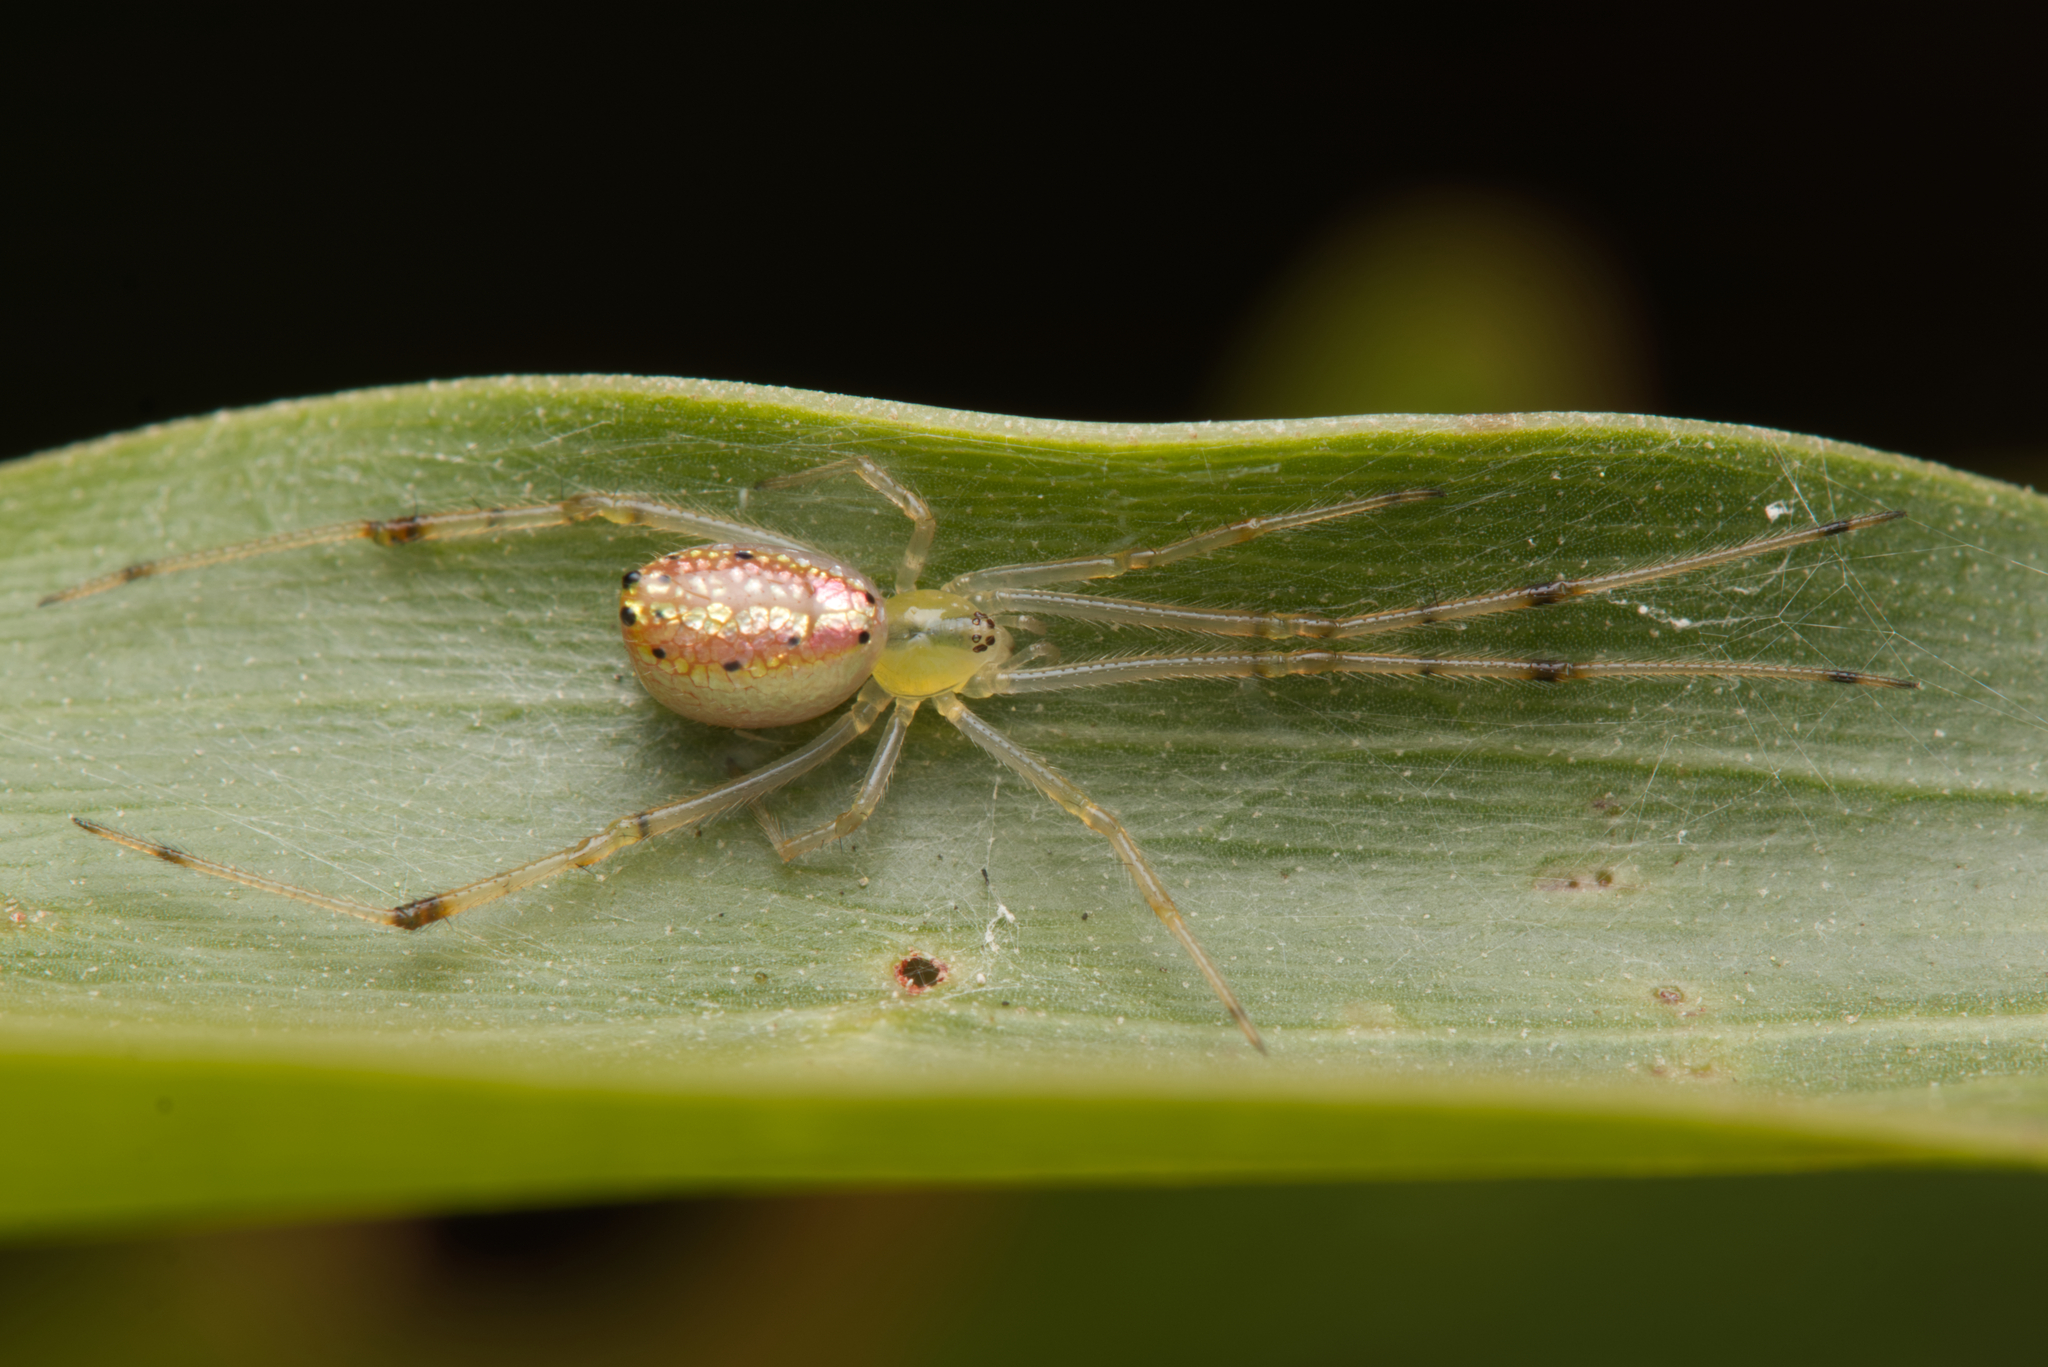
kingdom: Animalia
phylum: Arthropoda
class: Arachnida
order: Araneae
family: Theridiidae
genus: Thwaitesia
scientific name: Thwaitesia nigronodosa
